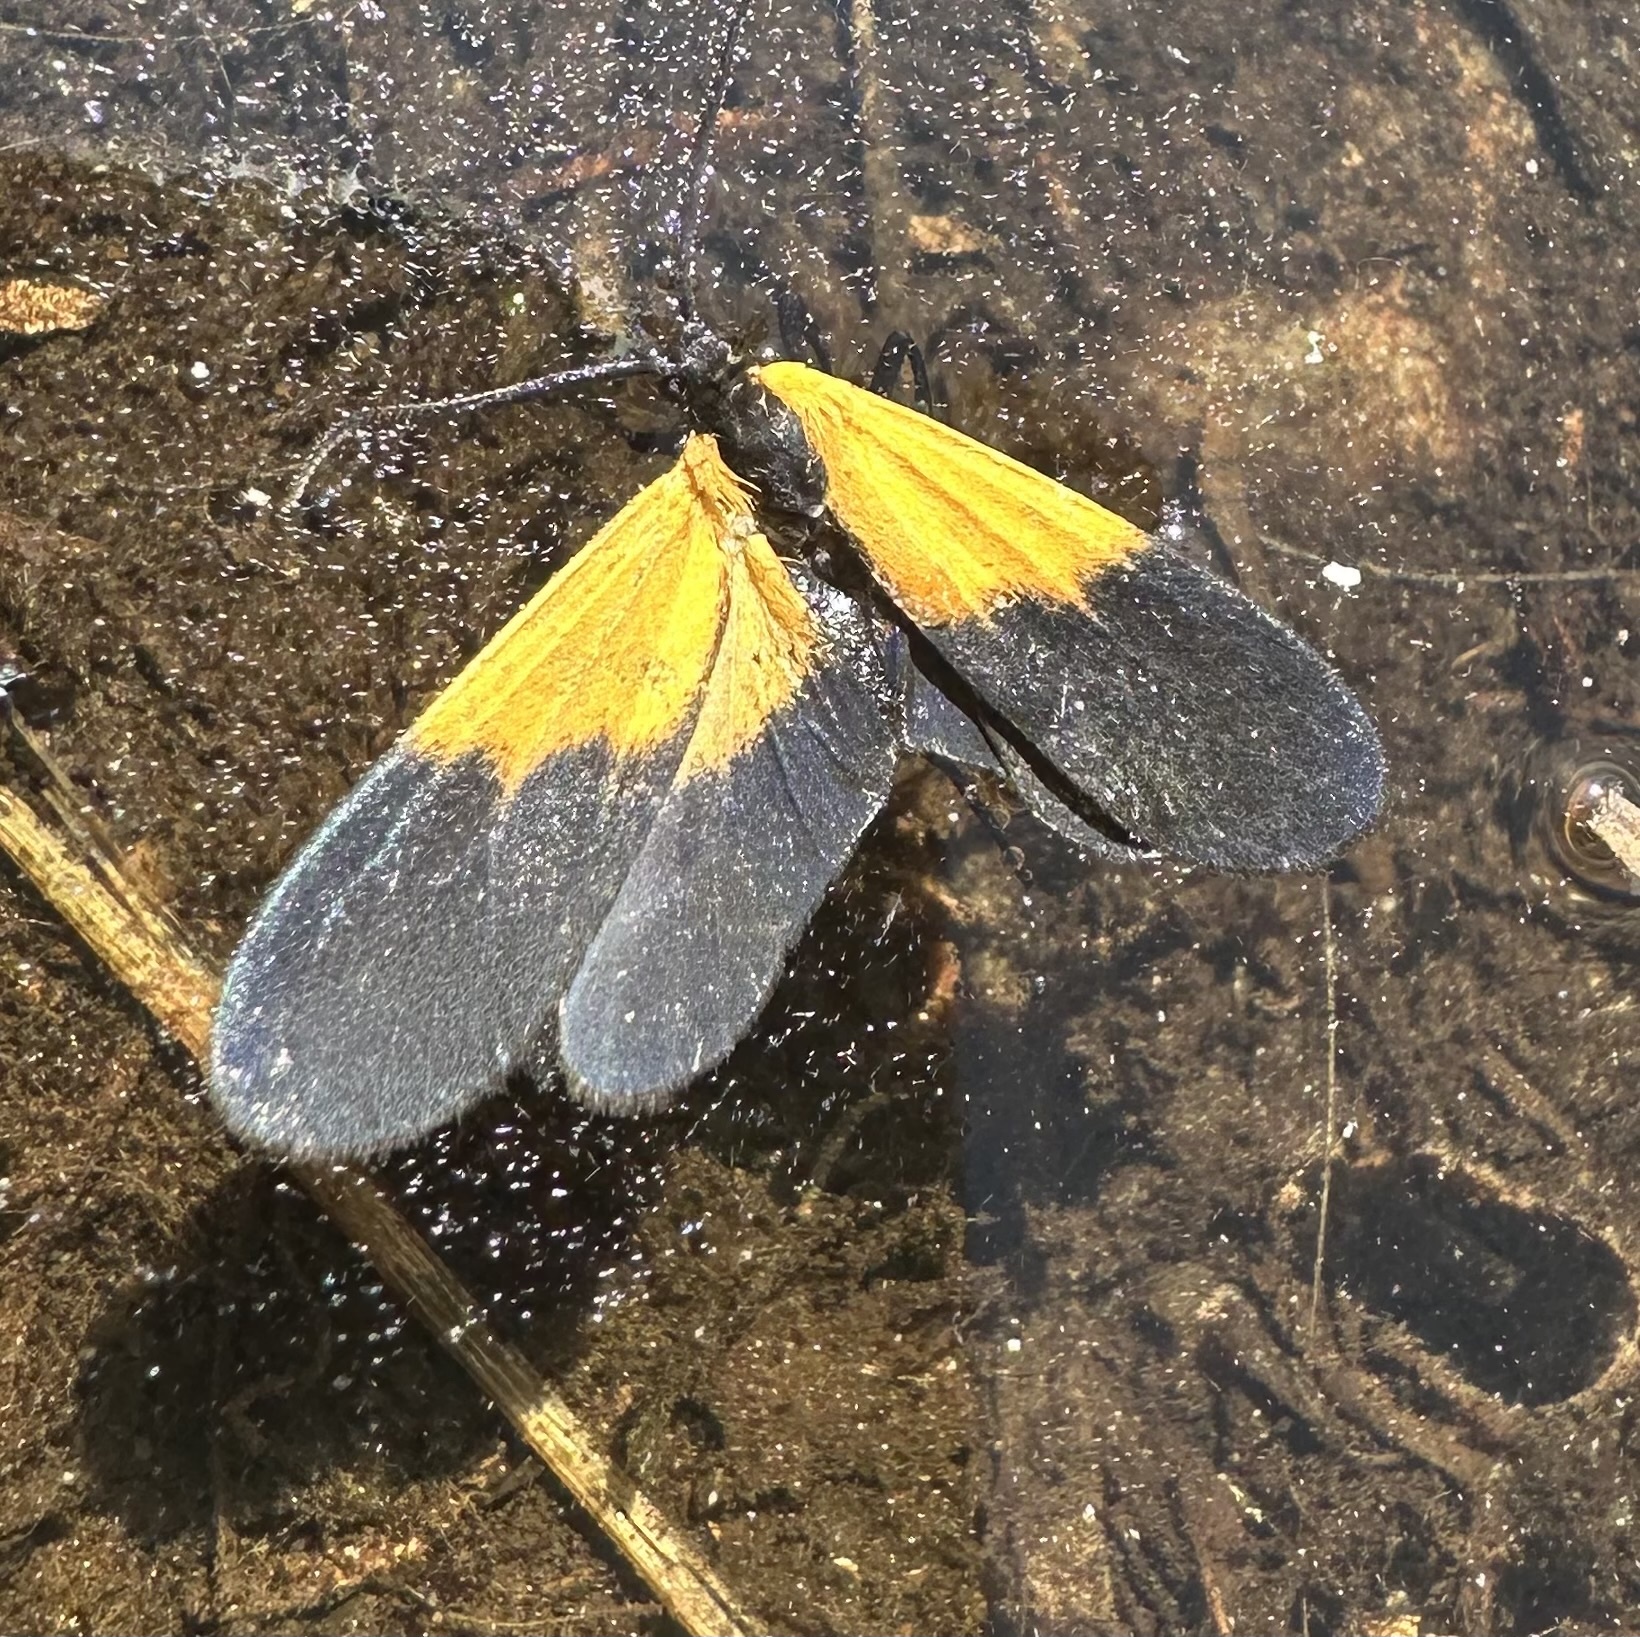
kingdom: Animalia
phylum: Arthropoda
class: Insecta
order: Lepidoptera
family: Erebidae
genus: Lycomorpha
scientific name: Lycomorpha pholus
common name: Black-and-yellow lichen moth
